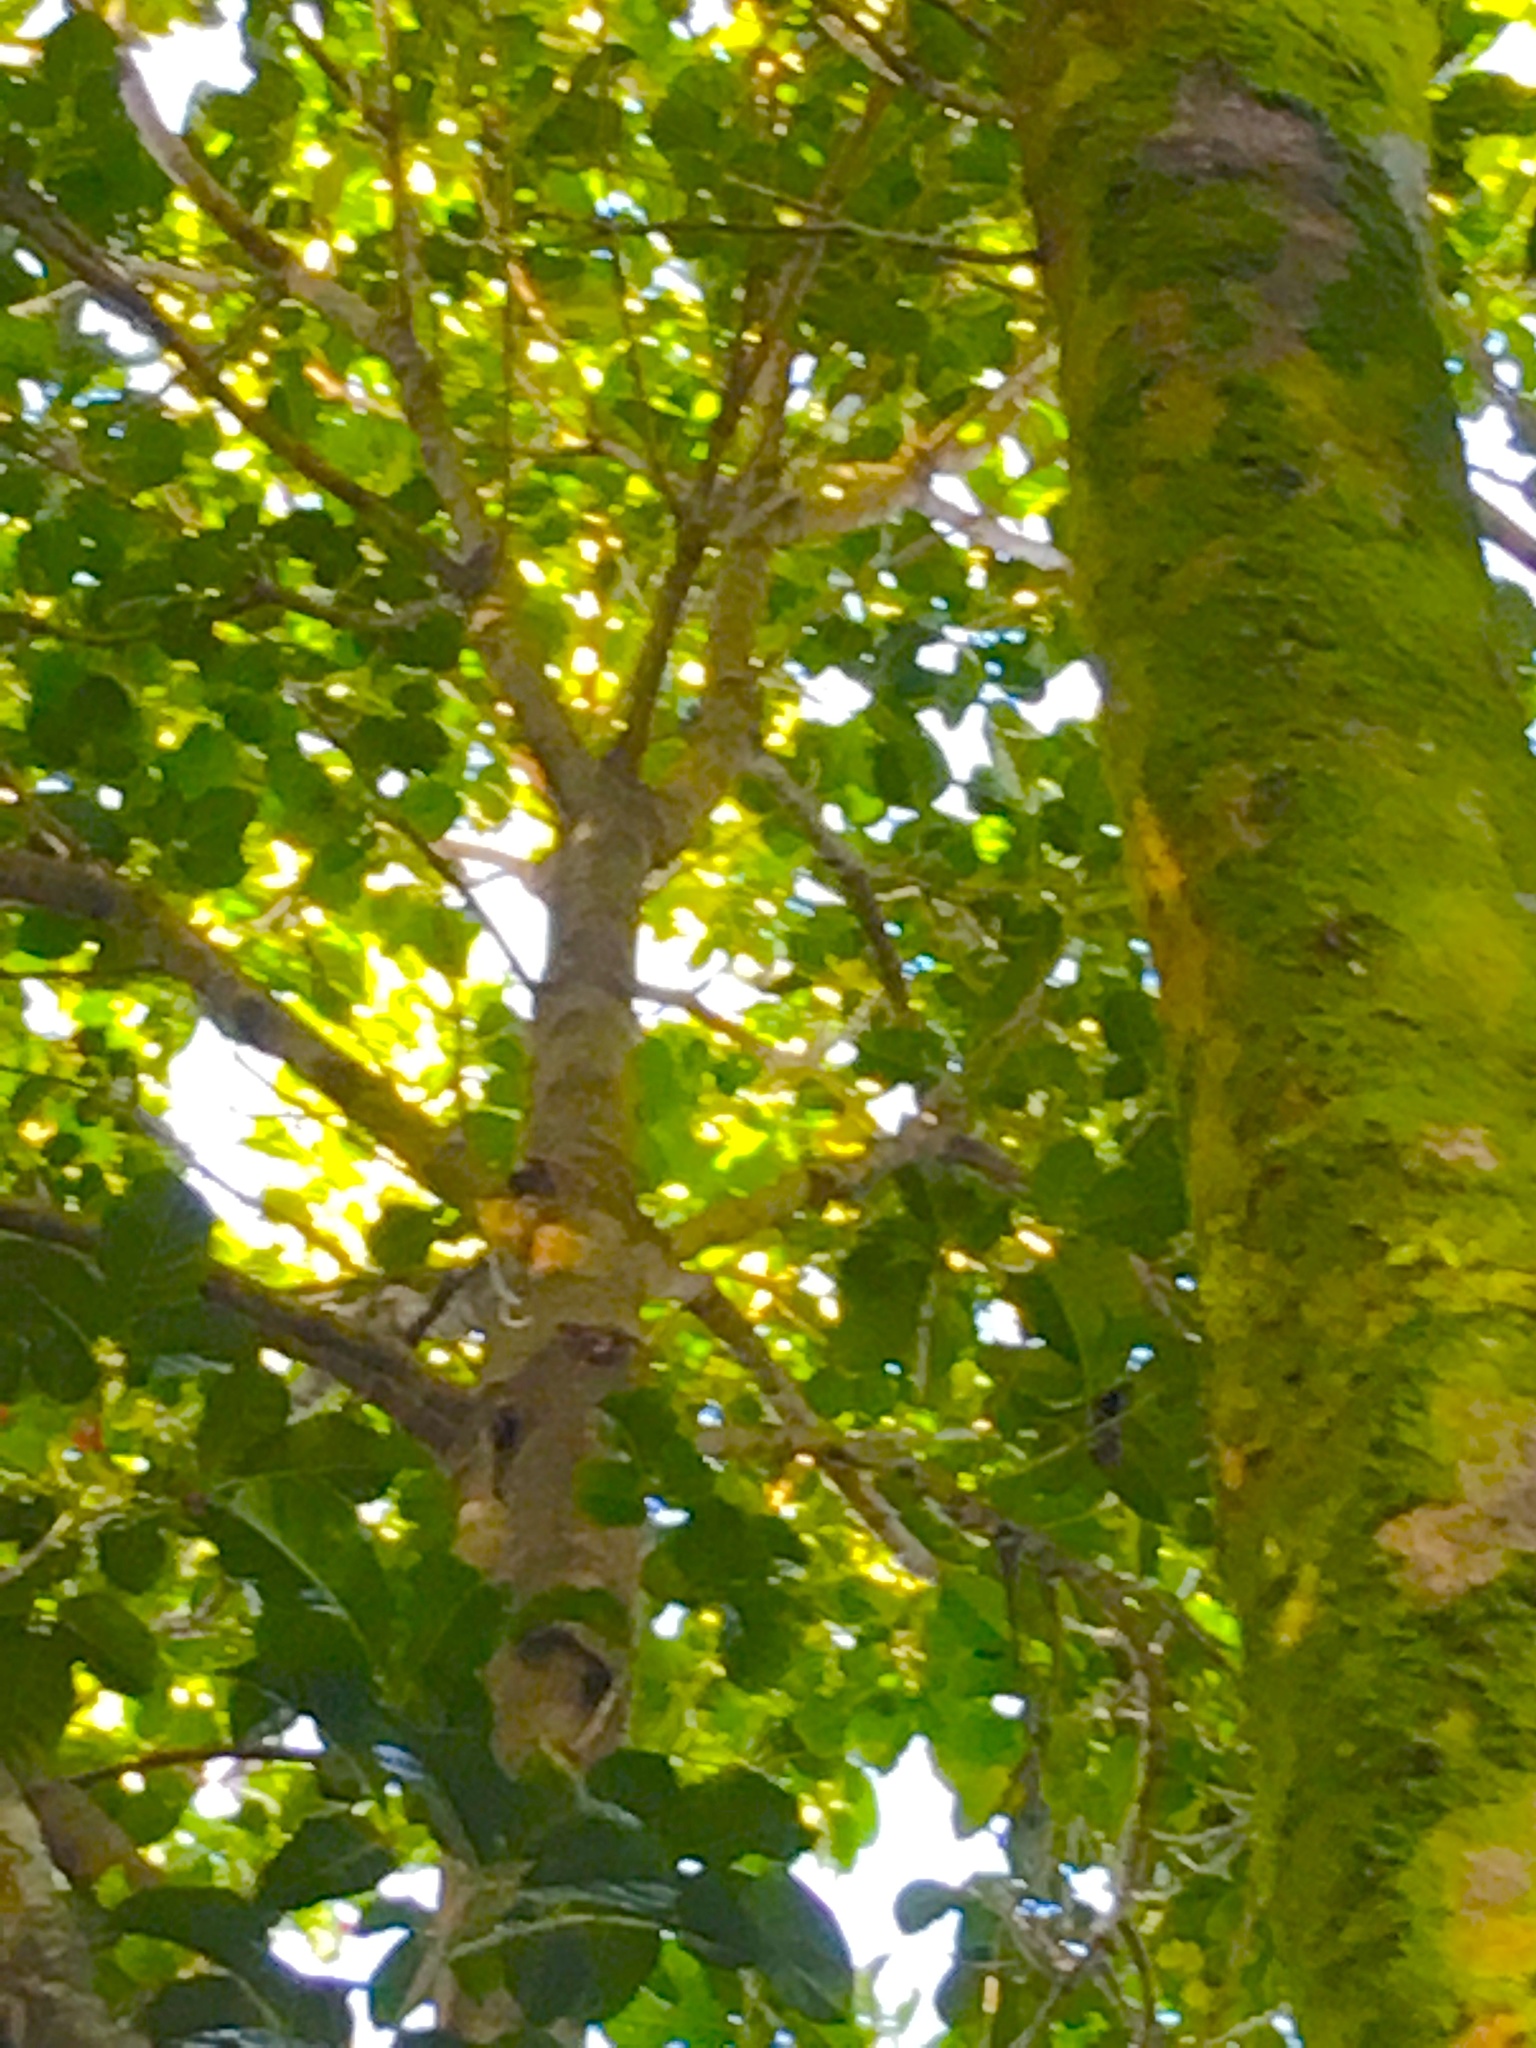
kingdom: Plantae
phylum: Tracheophyta
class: Magnoliopsida
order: Lamiales
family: Lamiaceae
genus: Vitex
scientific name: Vitex lucens
